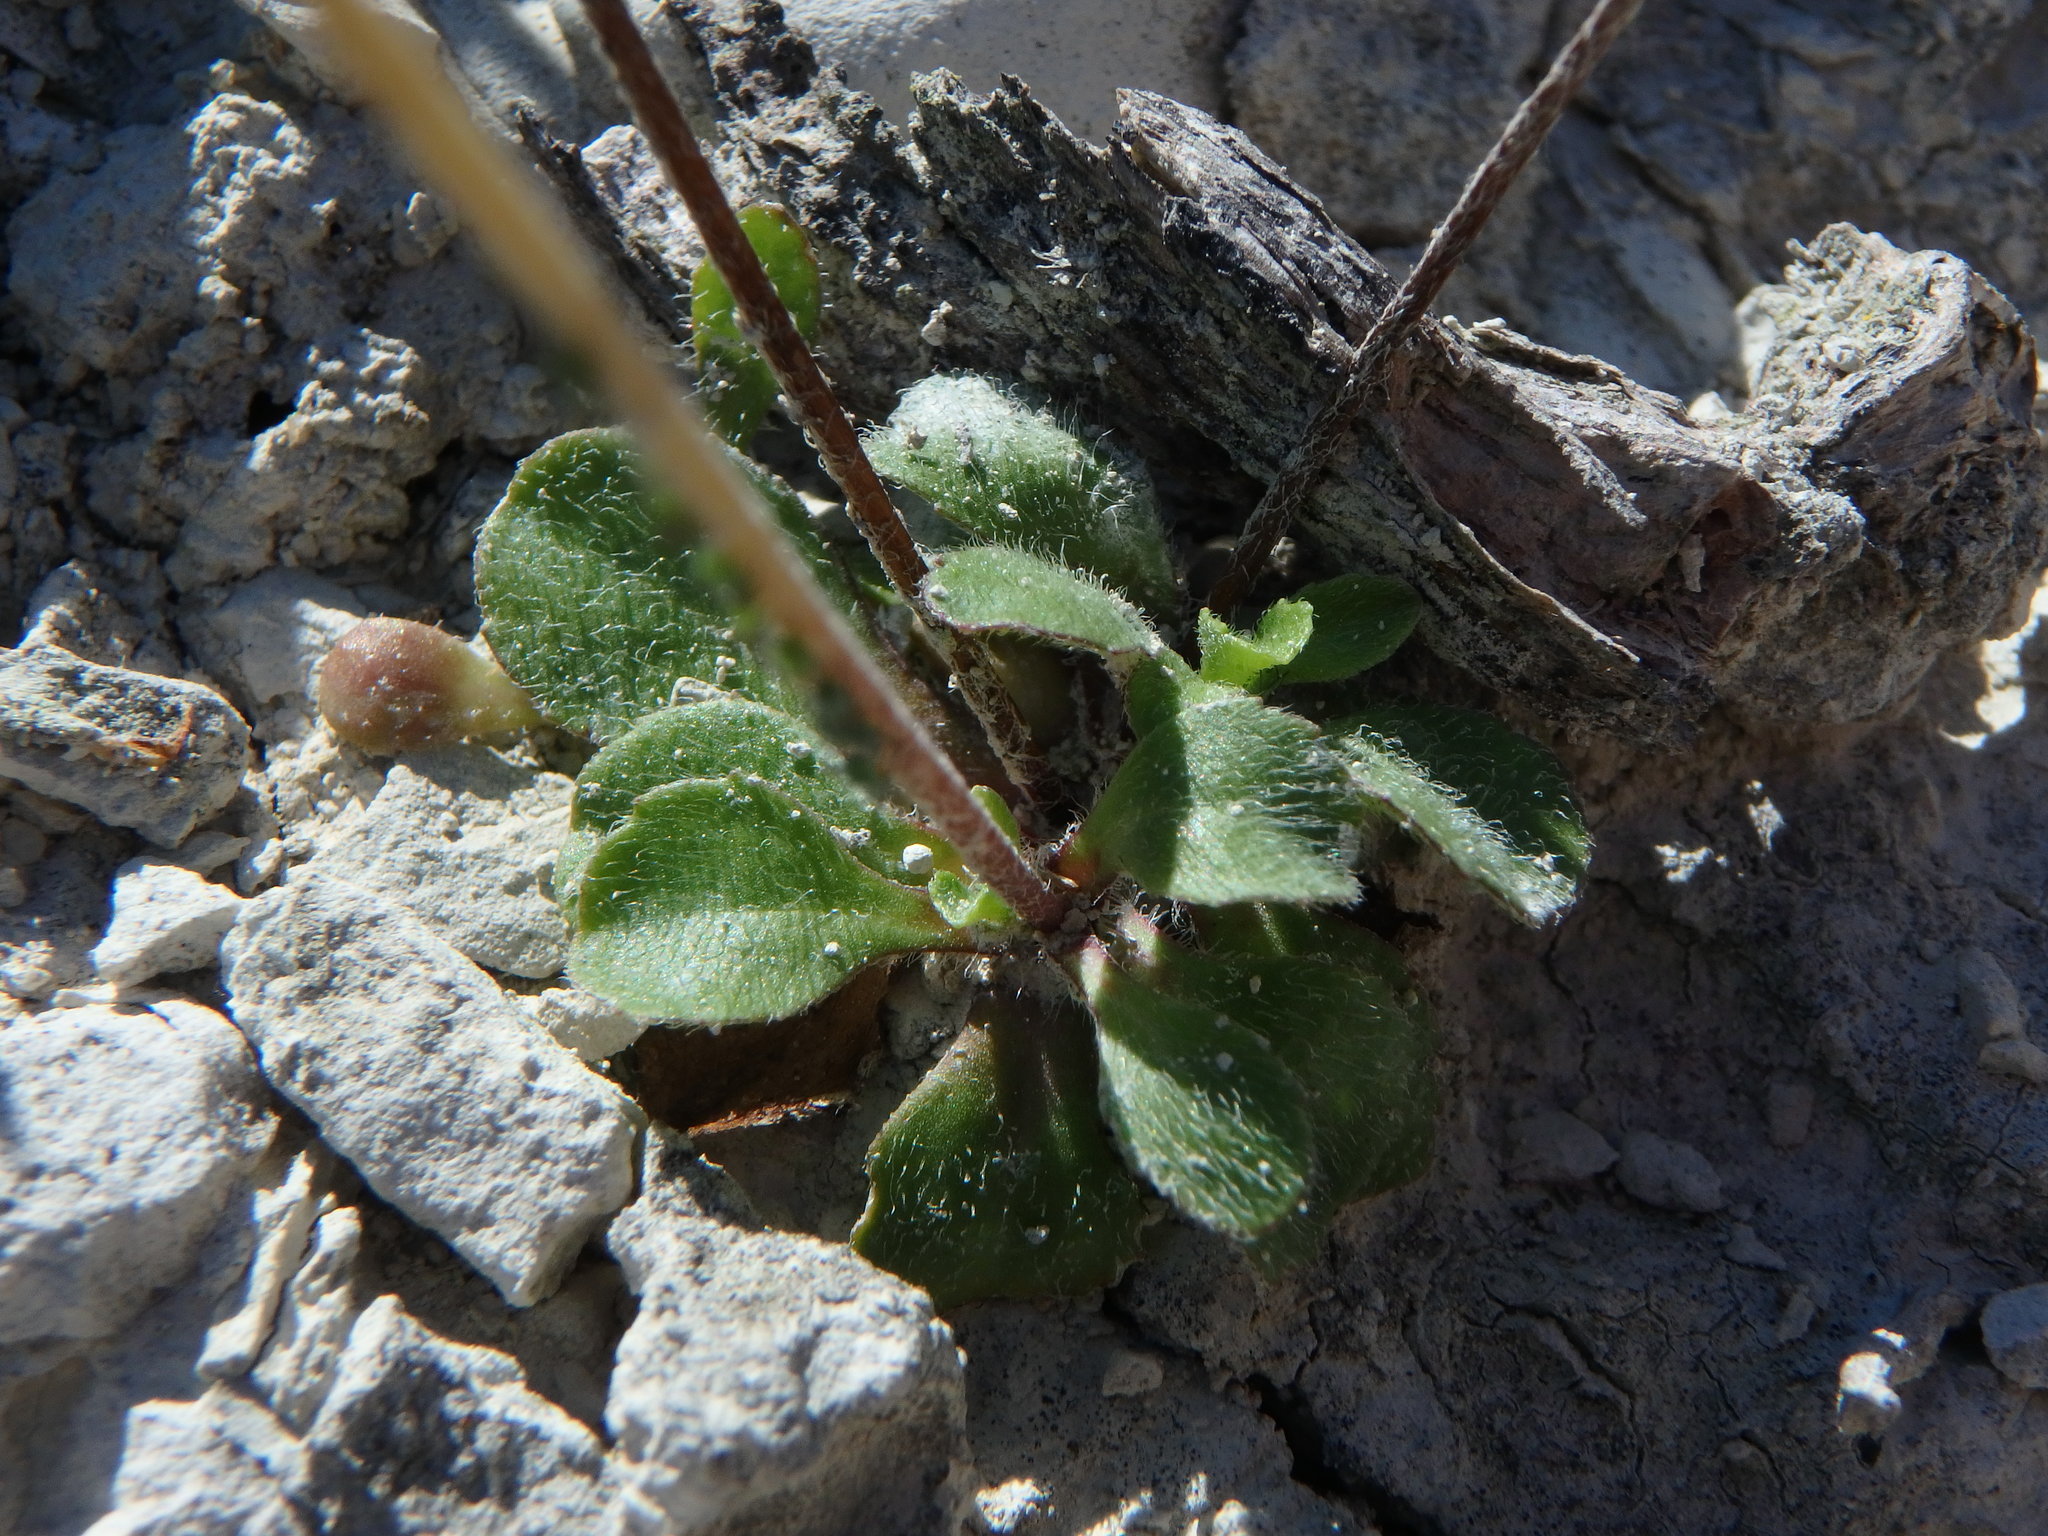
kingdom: Plantae
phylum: Tracheophyta
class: Magnoliopsida
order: Asterales
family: Asteraceae
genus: Bellis
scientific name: Bellis perennis
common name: Lawndaisy
